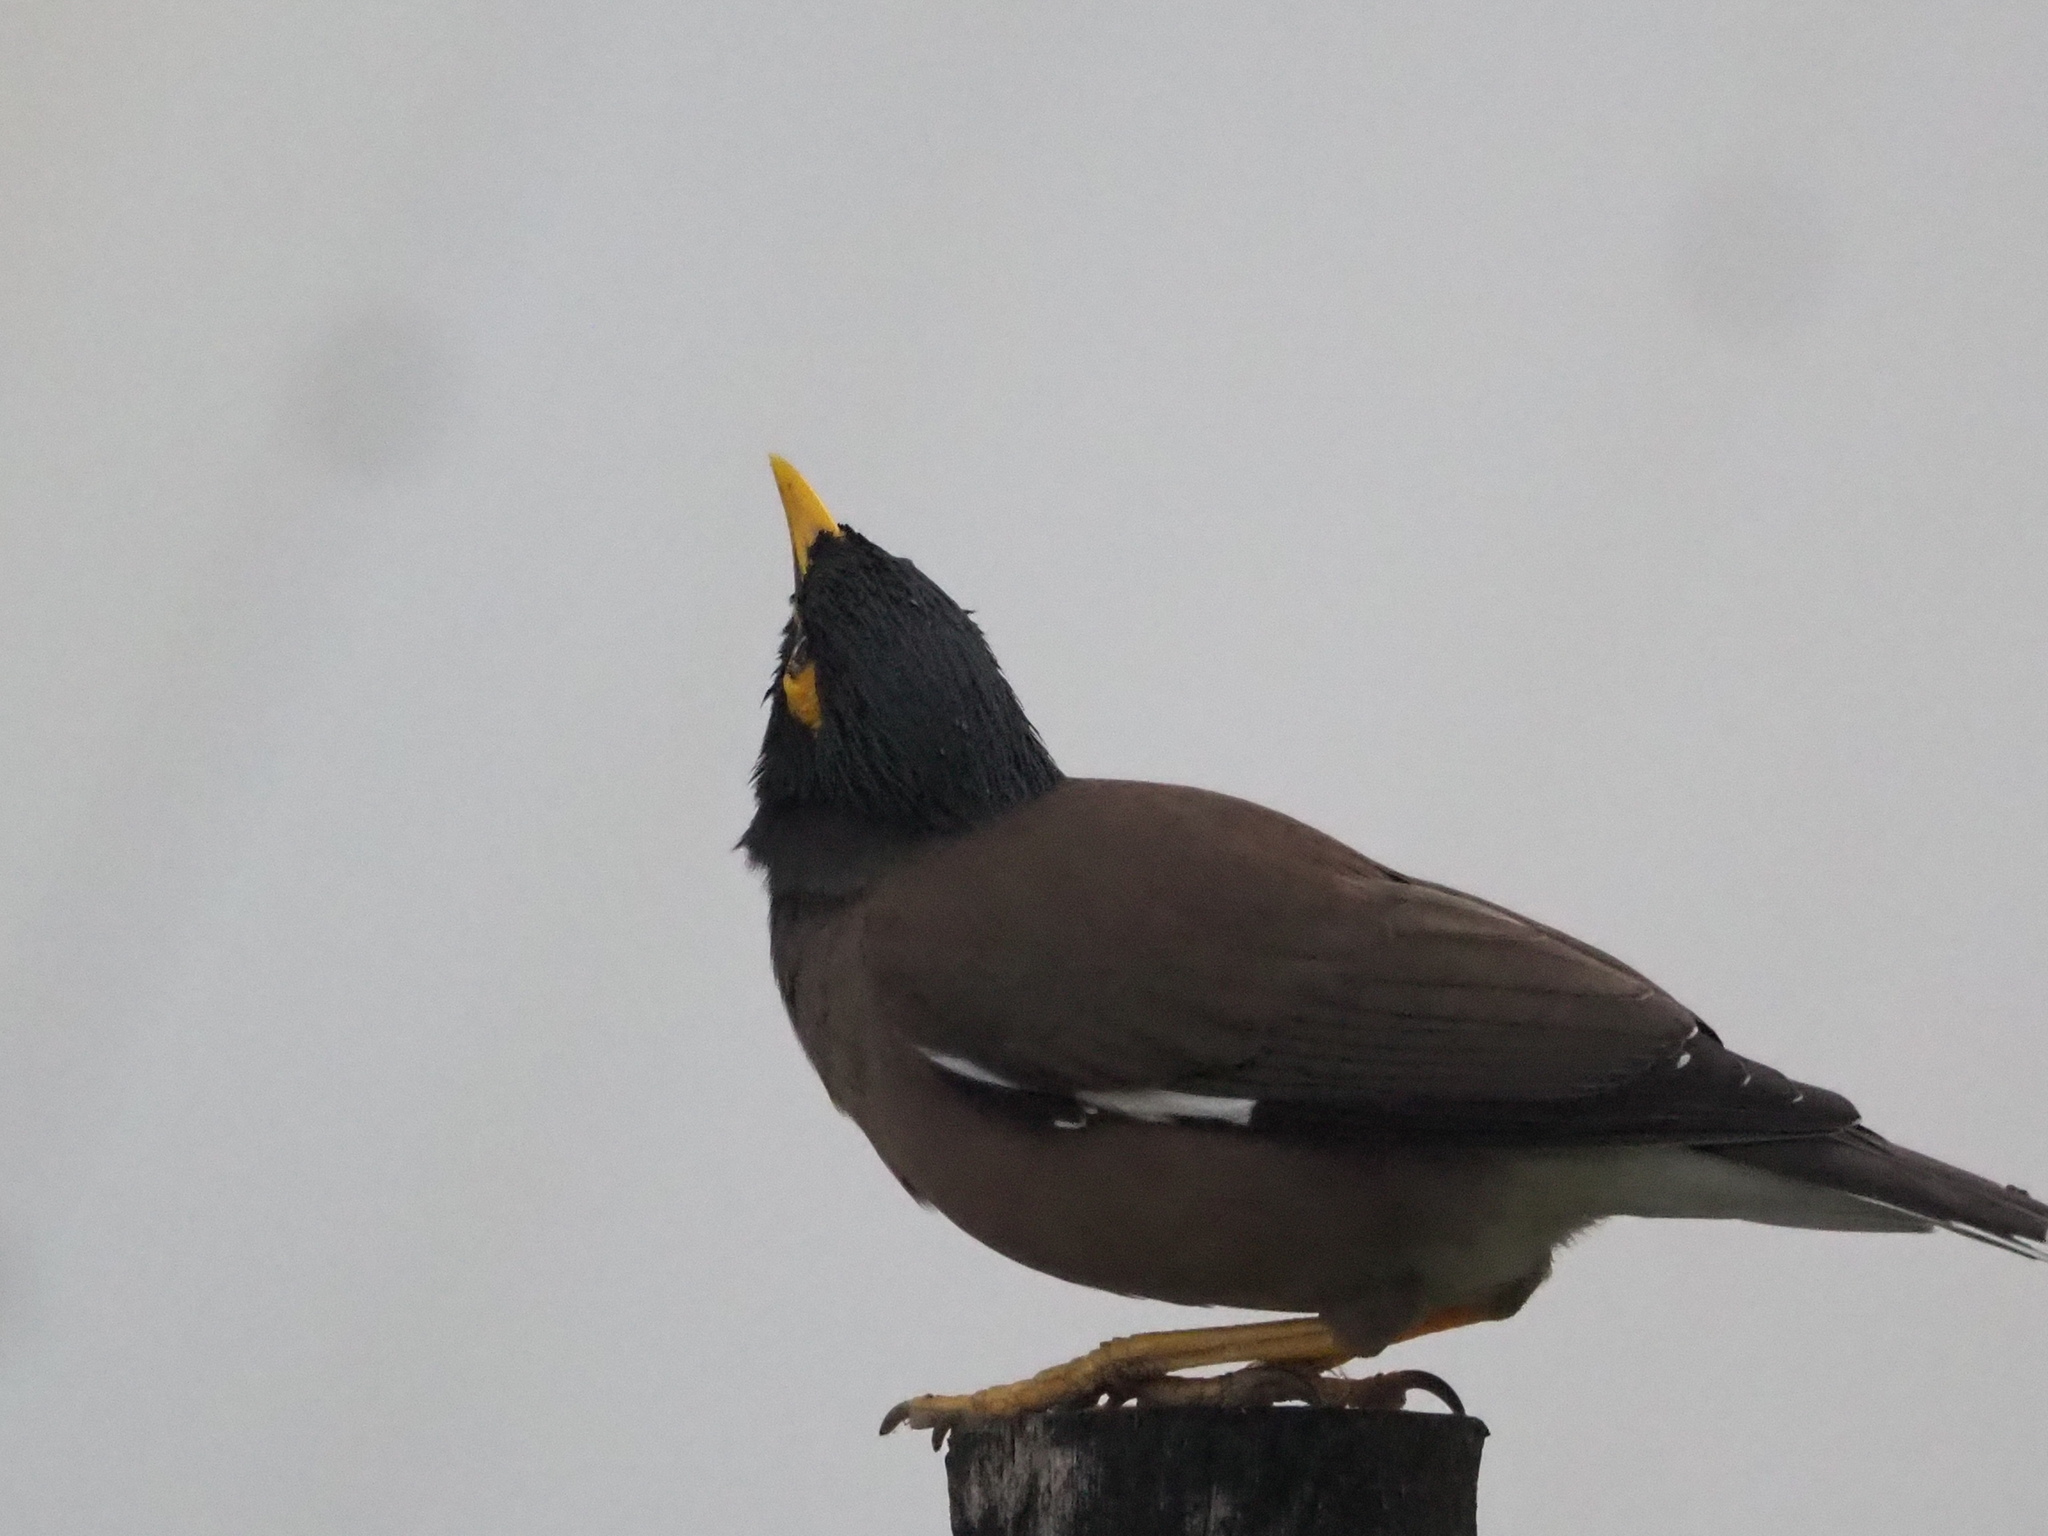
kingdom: Animalia
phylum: Chordata
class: Aves
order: Passeriformes
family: Sturnidae
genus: Acridotheres
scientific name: Acridotheres tristis
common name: Common myna
